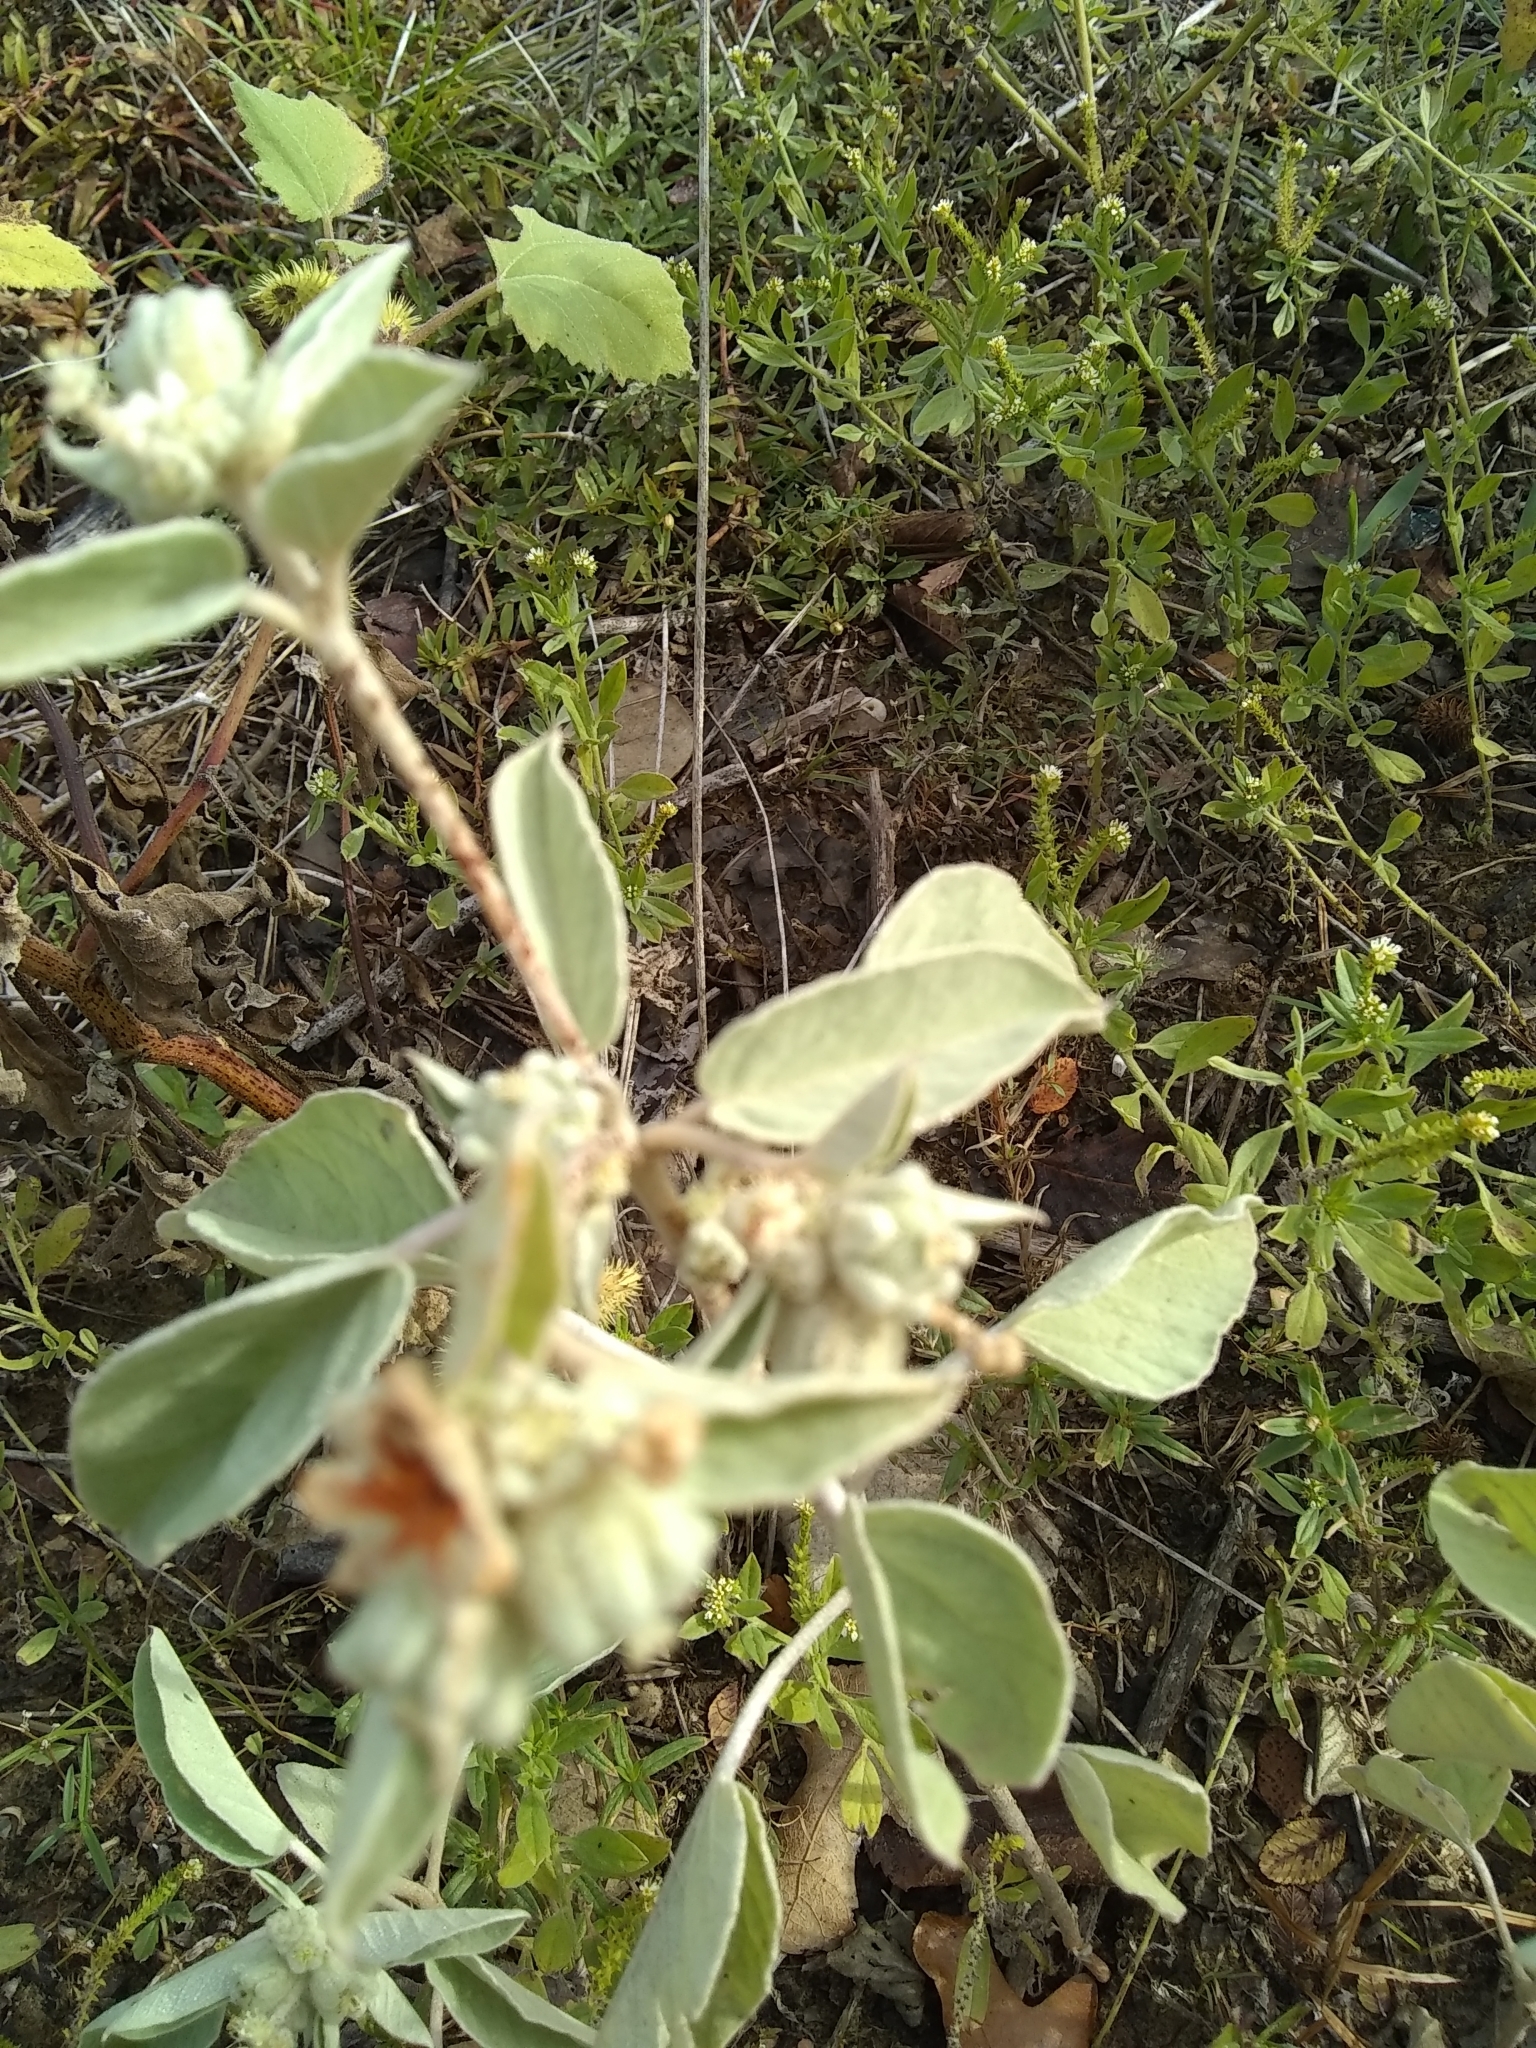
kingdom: Plantae
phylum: Tracheophyta
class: Magnoliopsida
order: Malpighiales
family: Euphorbiaceae
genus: Croton
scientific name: Croton lindheimeri
